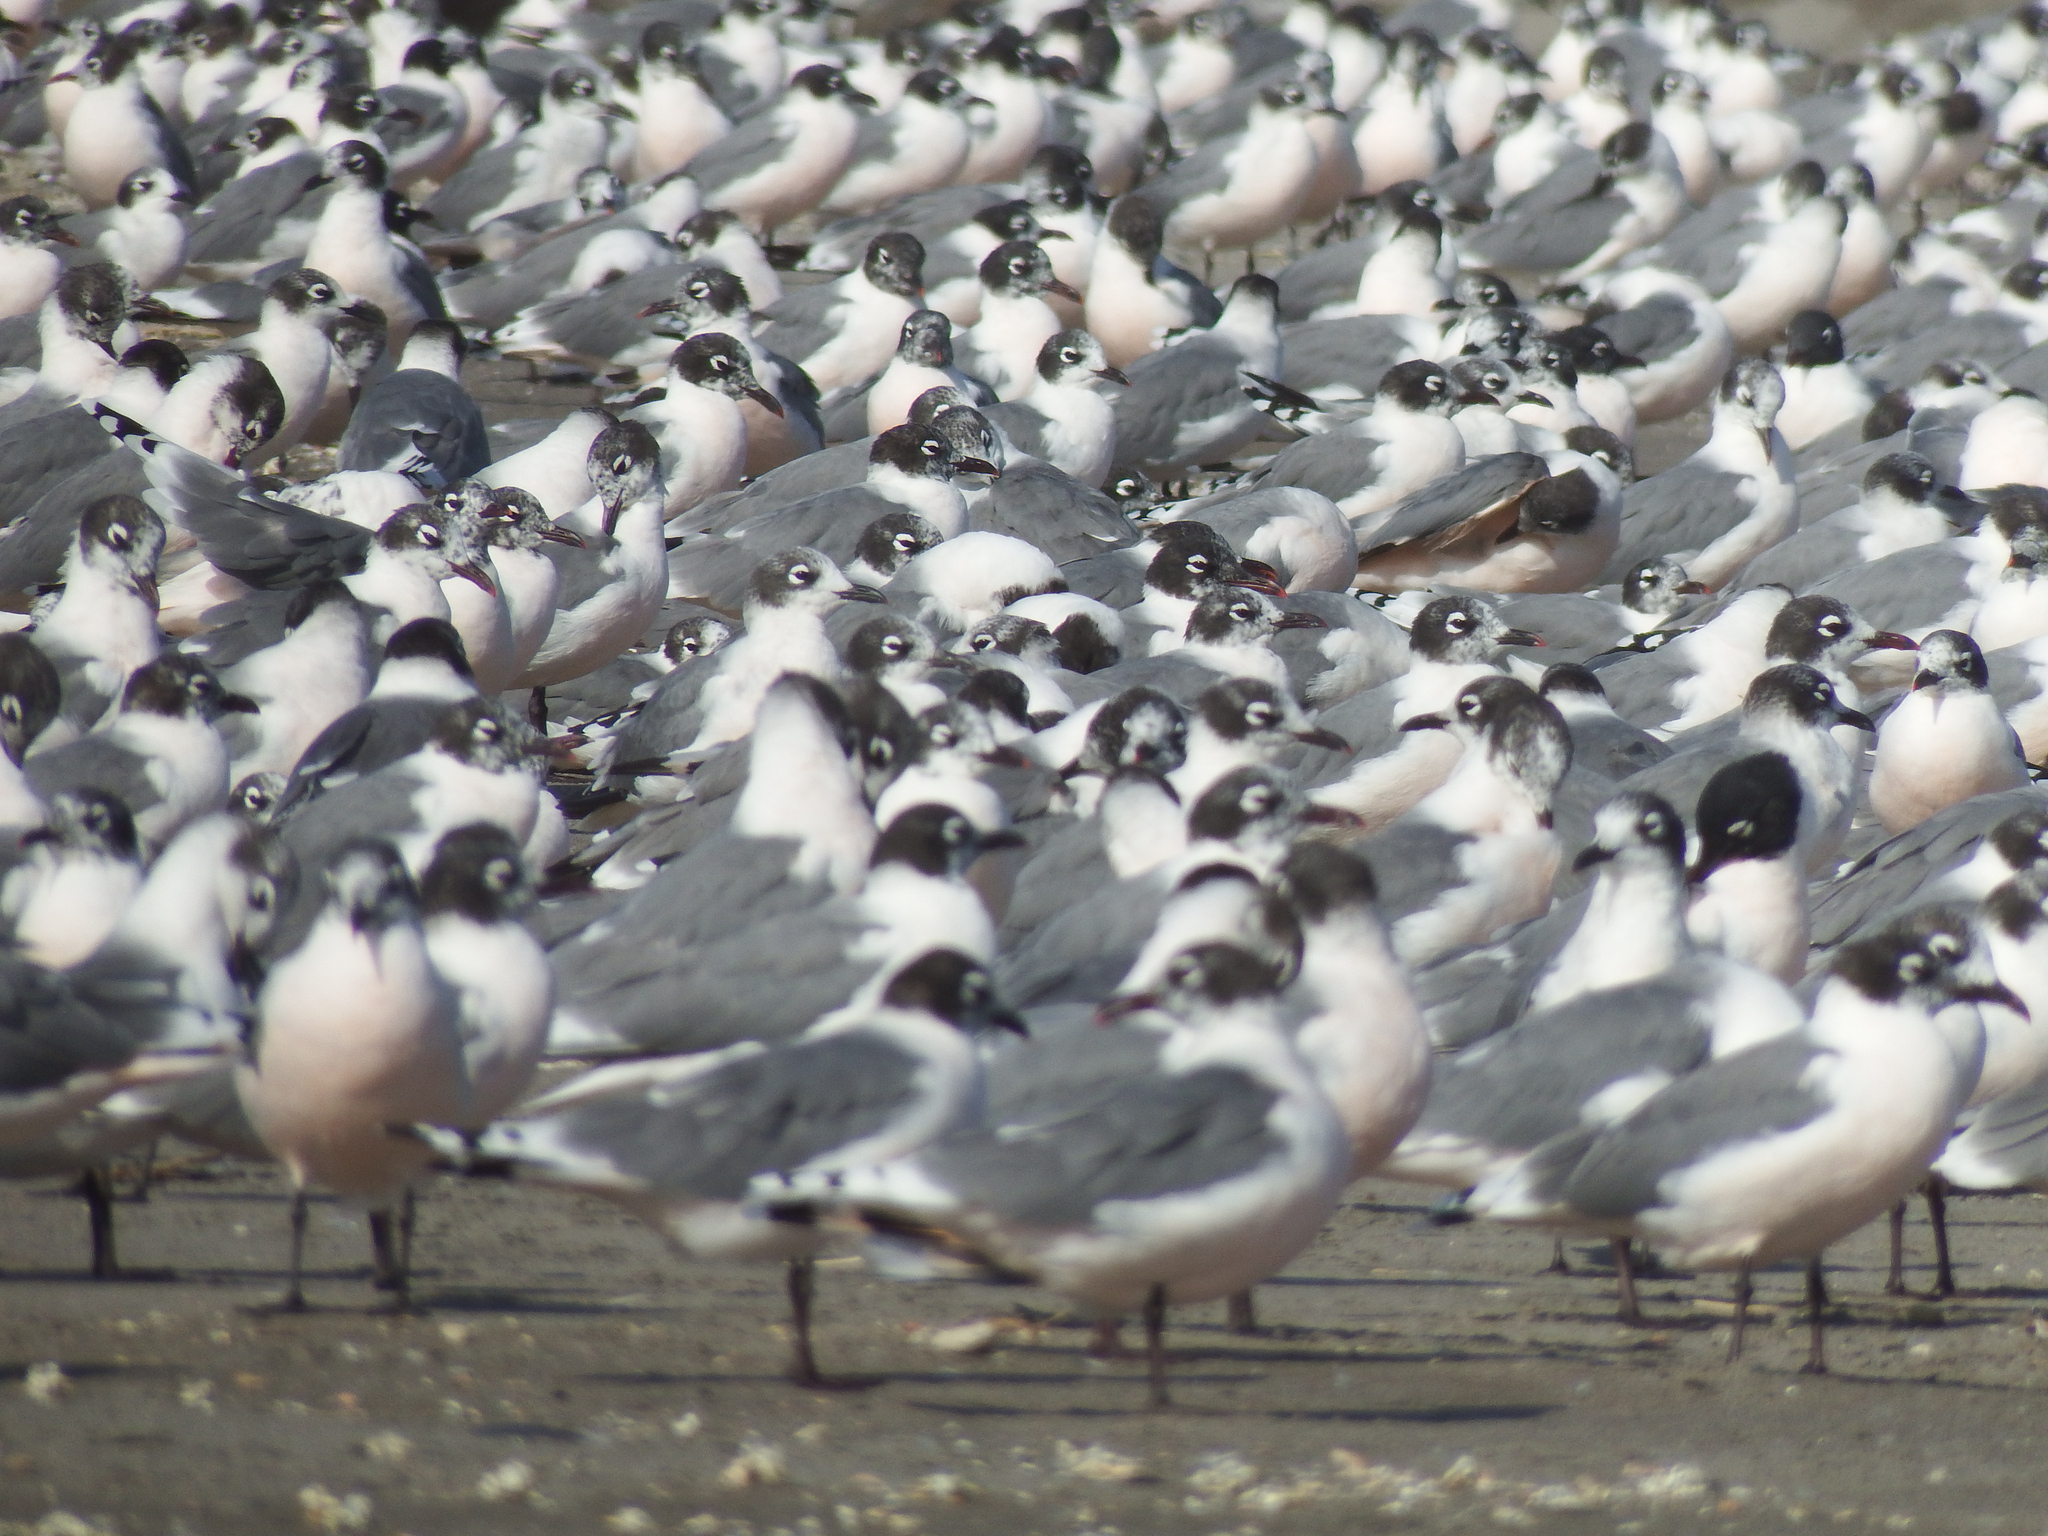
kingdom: Animalia
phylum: Chordata
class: Aves
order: Charadriiformes
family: Laridae
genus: Leucophaeus
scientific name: Leucophaeus pipixcan
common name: Franklin's gull
